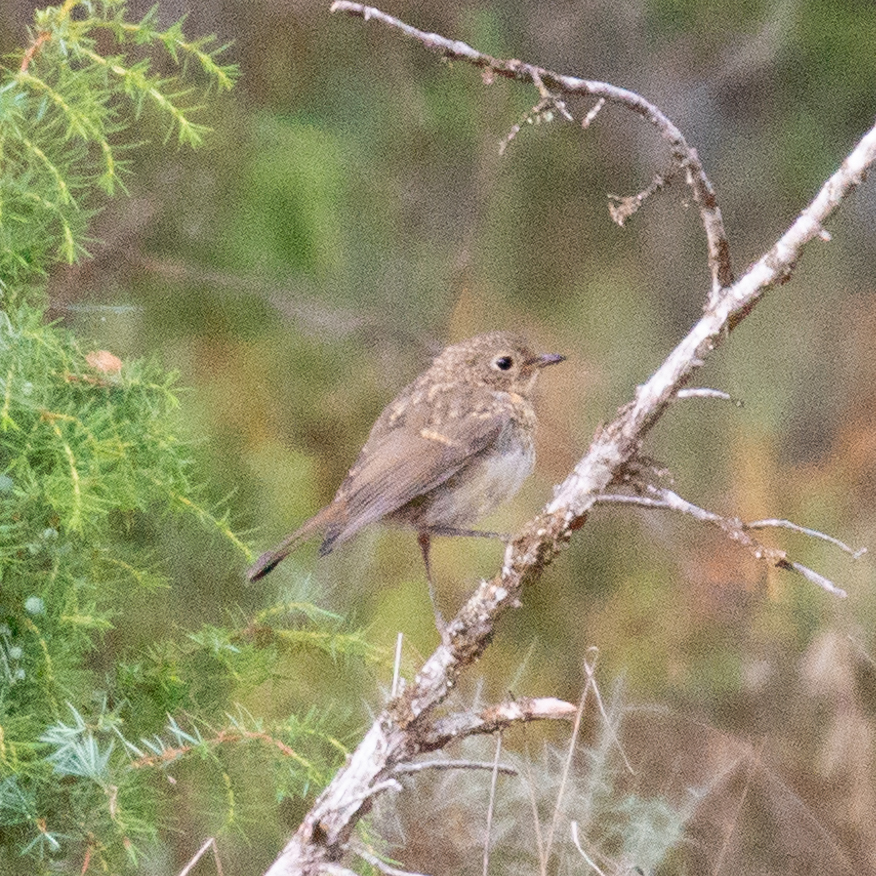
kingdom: Animalia
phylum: Chordata
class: Aves
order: Passeriformes
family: Muscicapidae
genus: Erithacus
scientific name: Erithacus rubecula
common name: European robin
